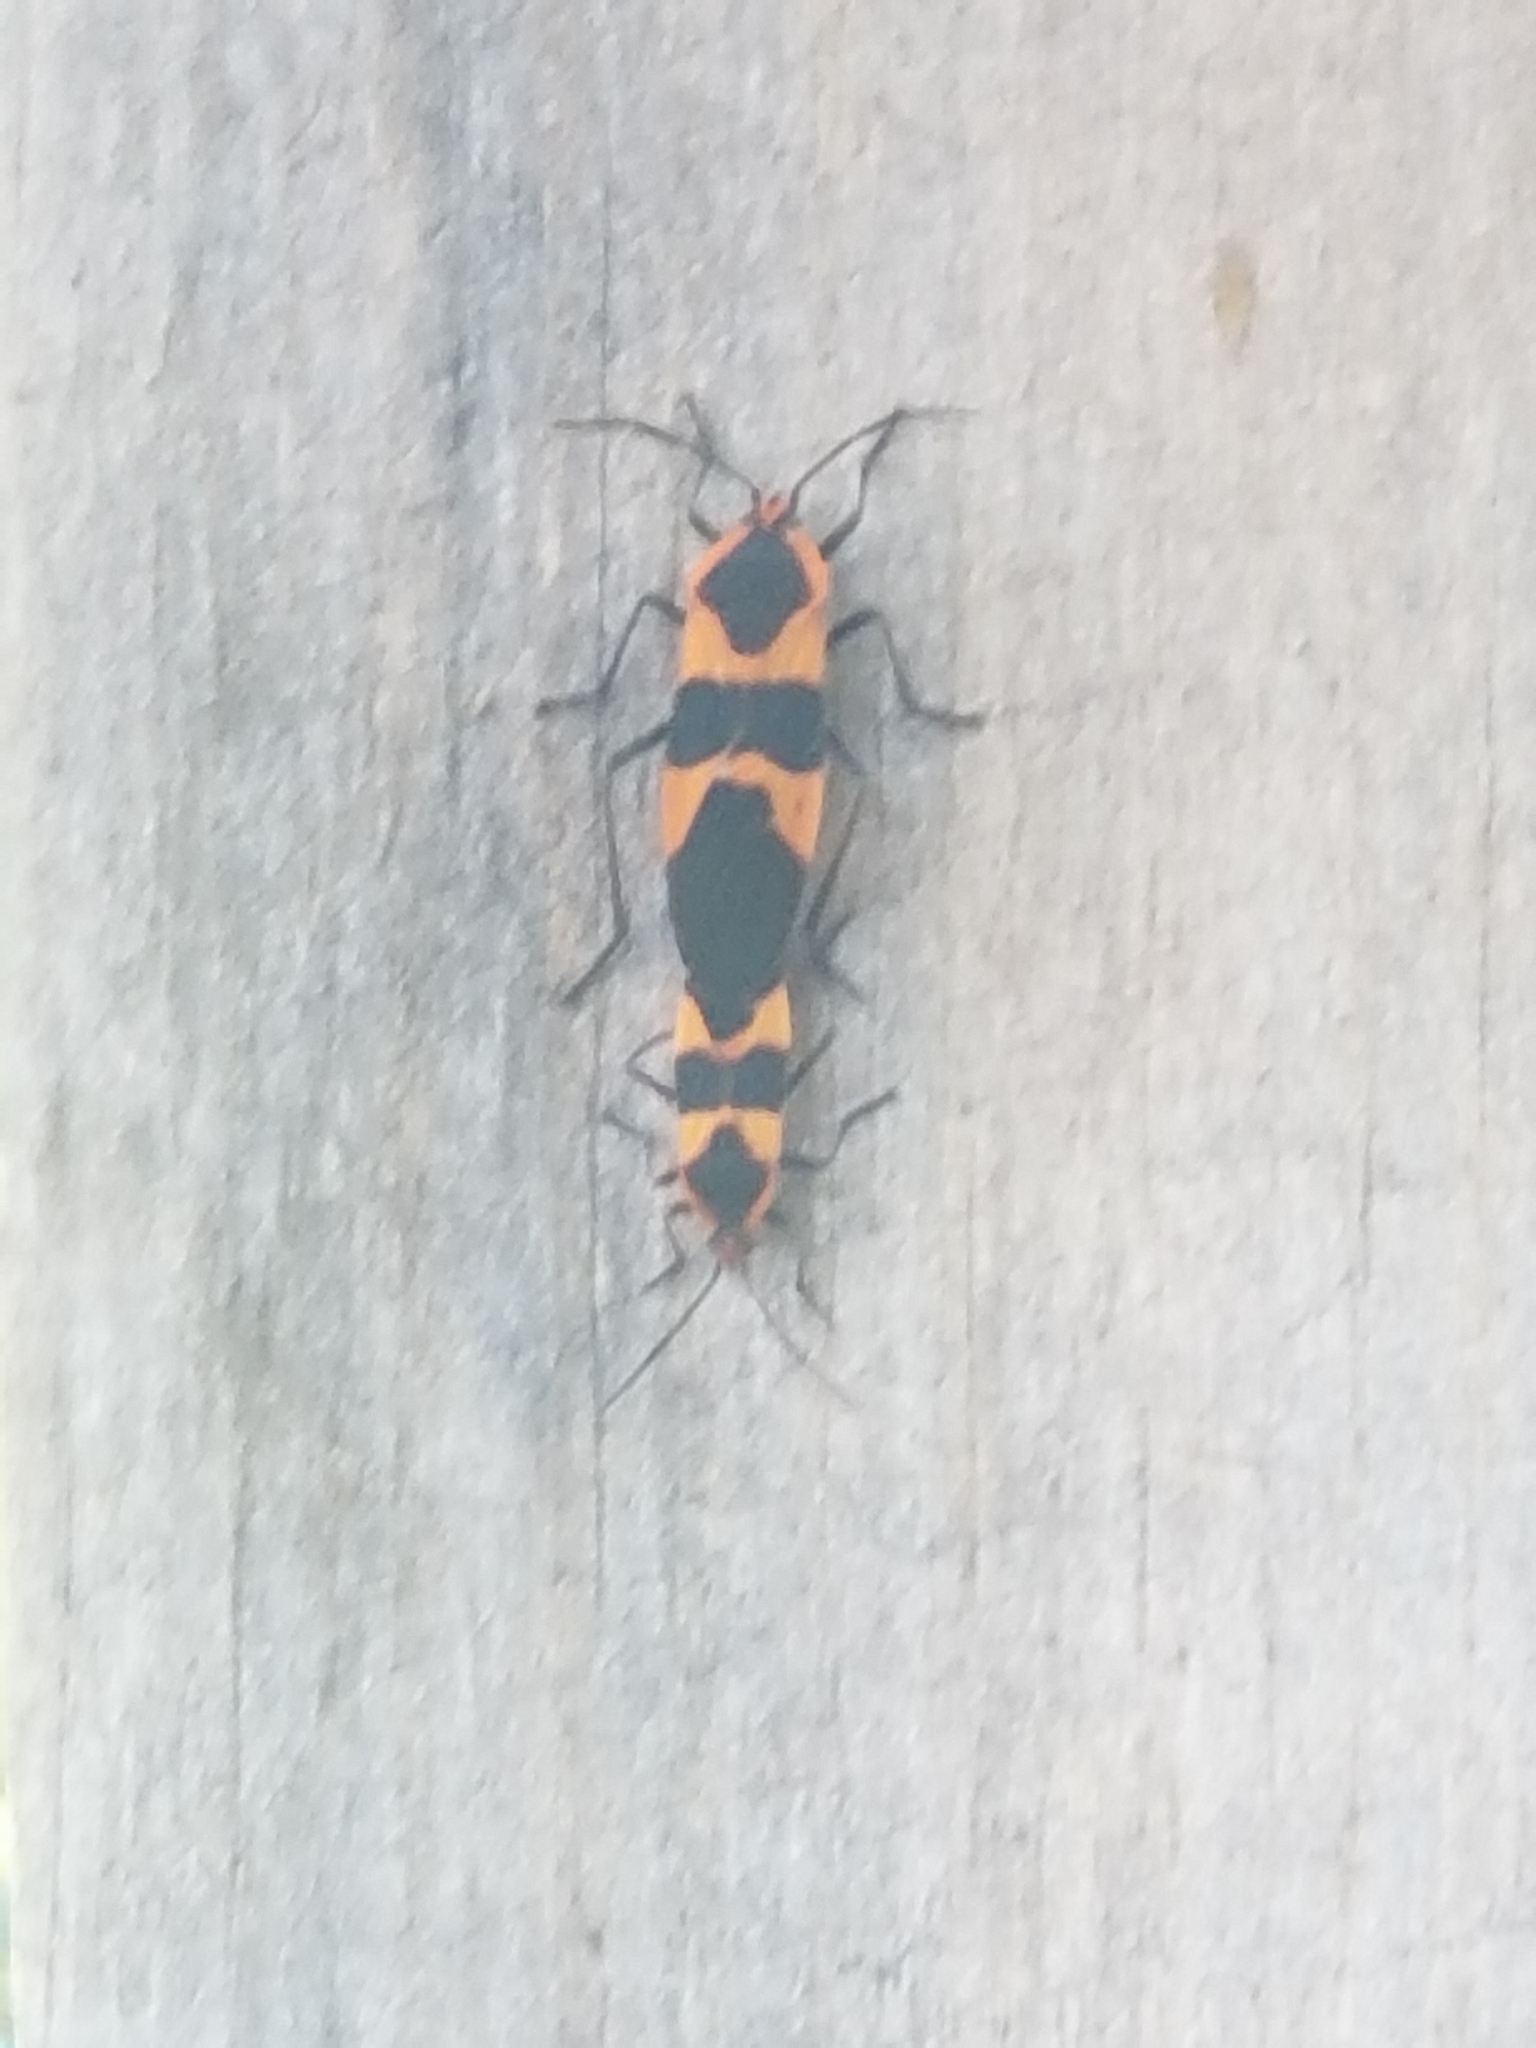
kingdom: Animalia
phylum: Arthropoda
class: Insecta
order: Hemiptera
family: Lygaeidae
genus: Oncopeltus
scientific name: Oncopeltus fasciatus
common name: Large milkweed bug
